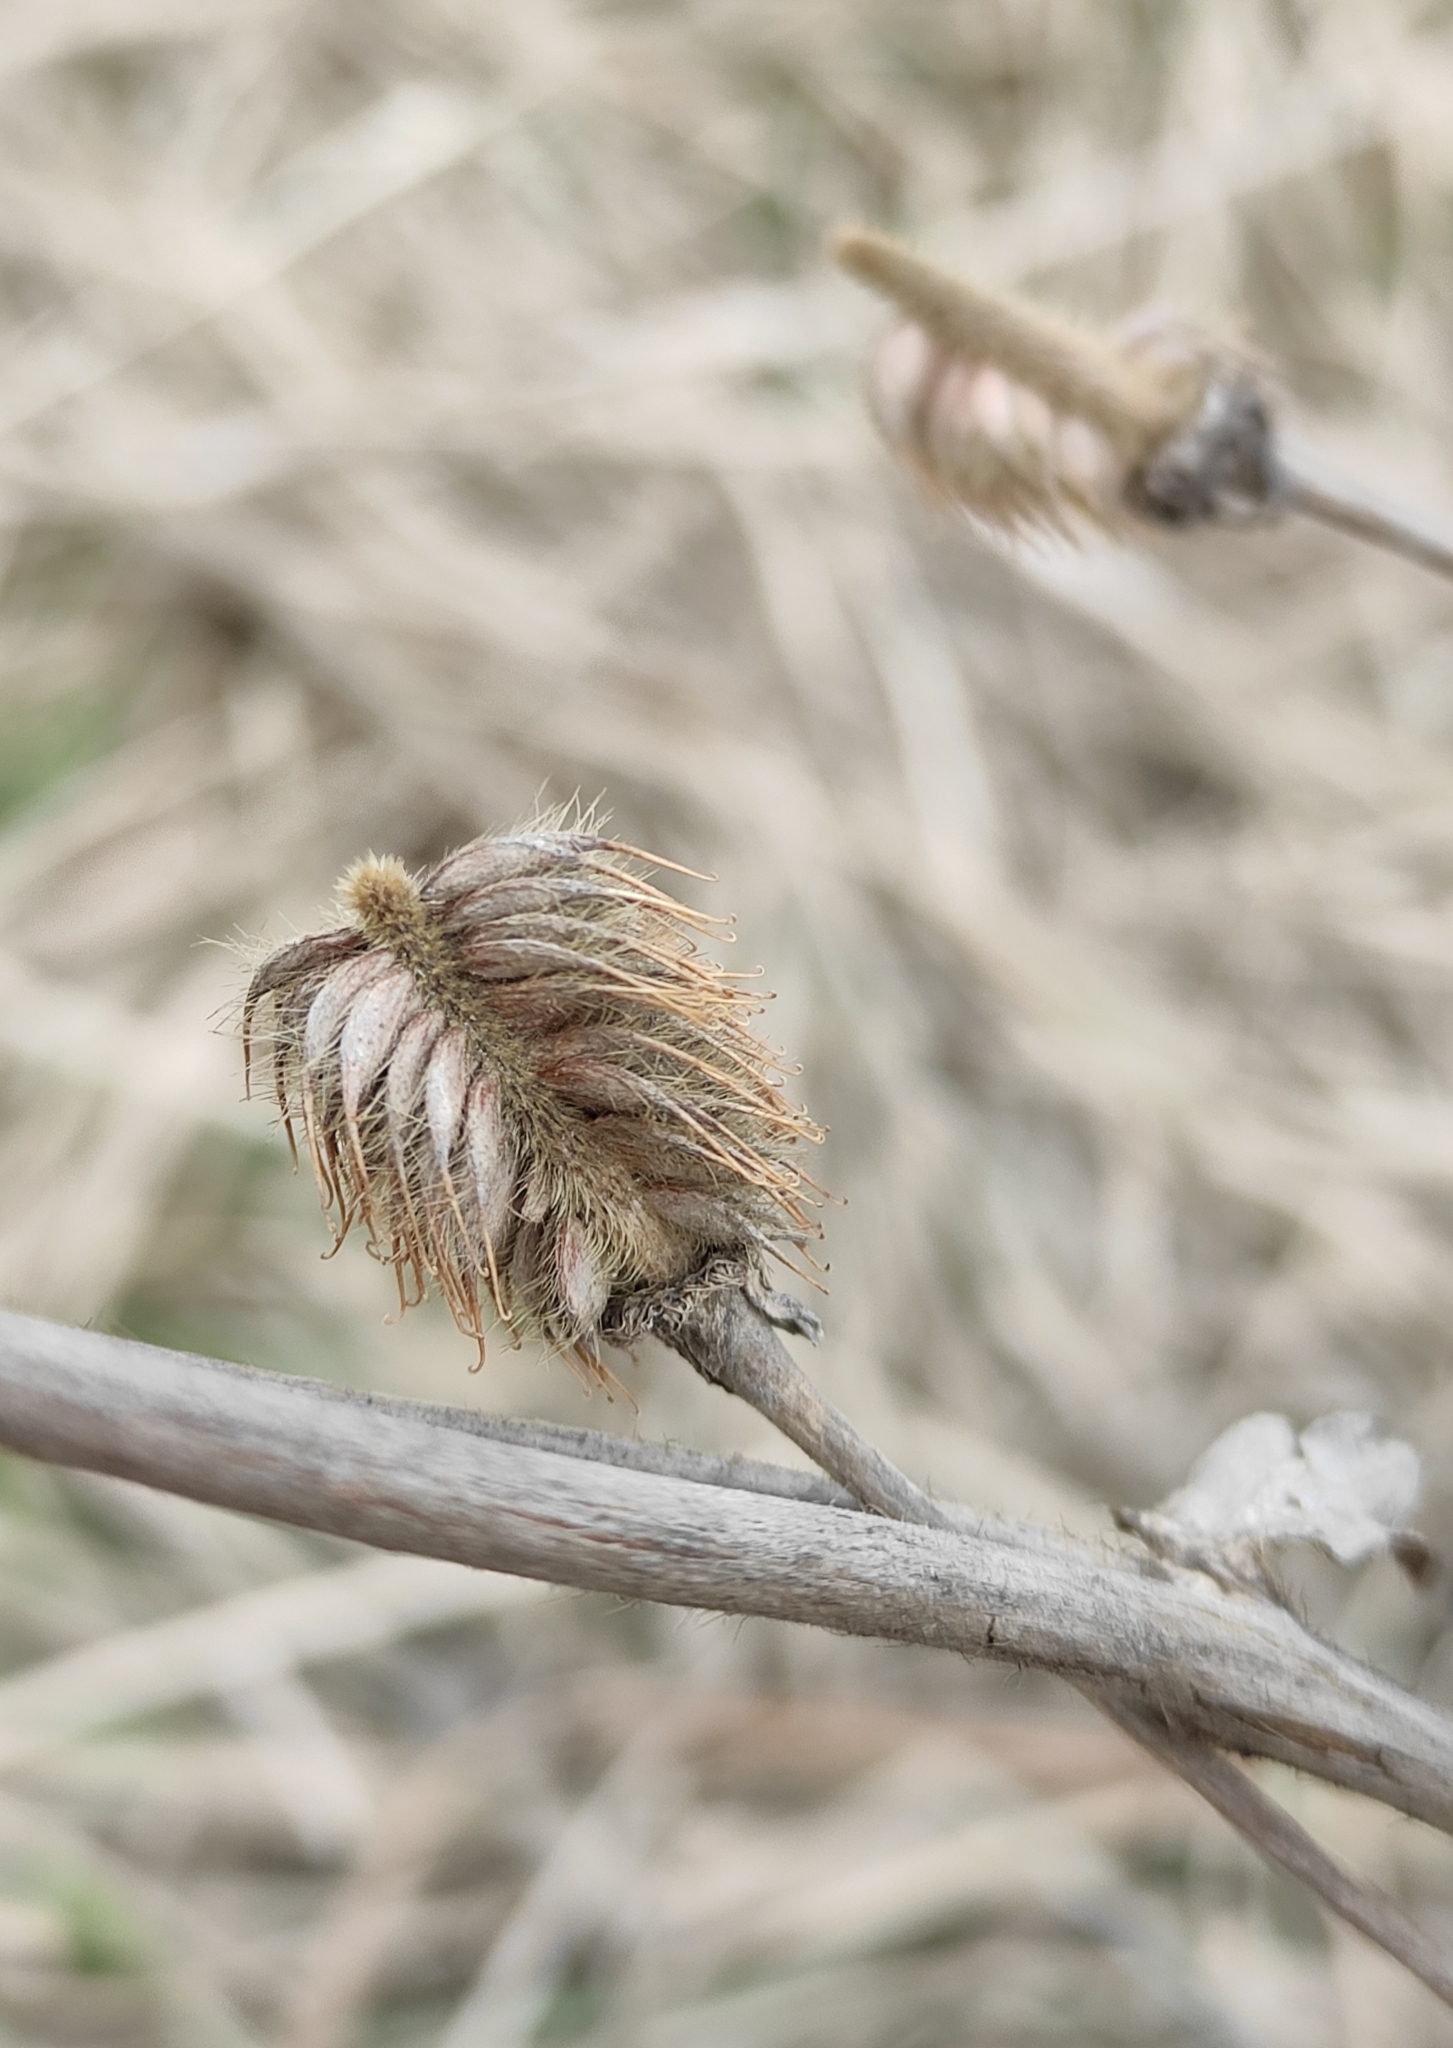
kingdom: Plantae
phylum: Tracheophyta
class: Magnoliopsida
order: Rosales
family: Rosaceae
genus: Geum
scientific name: Geum aleppicum
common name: Yellow avens
